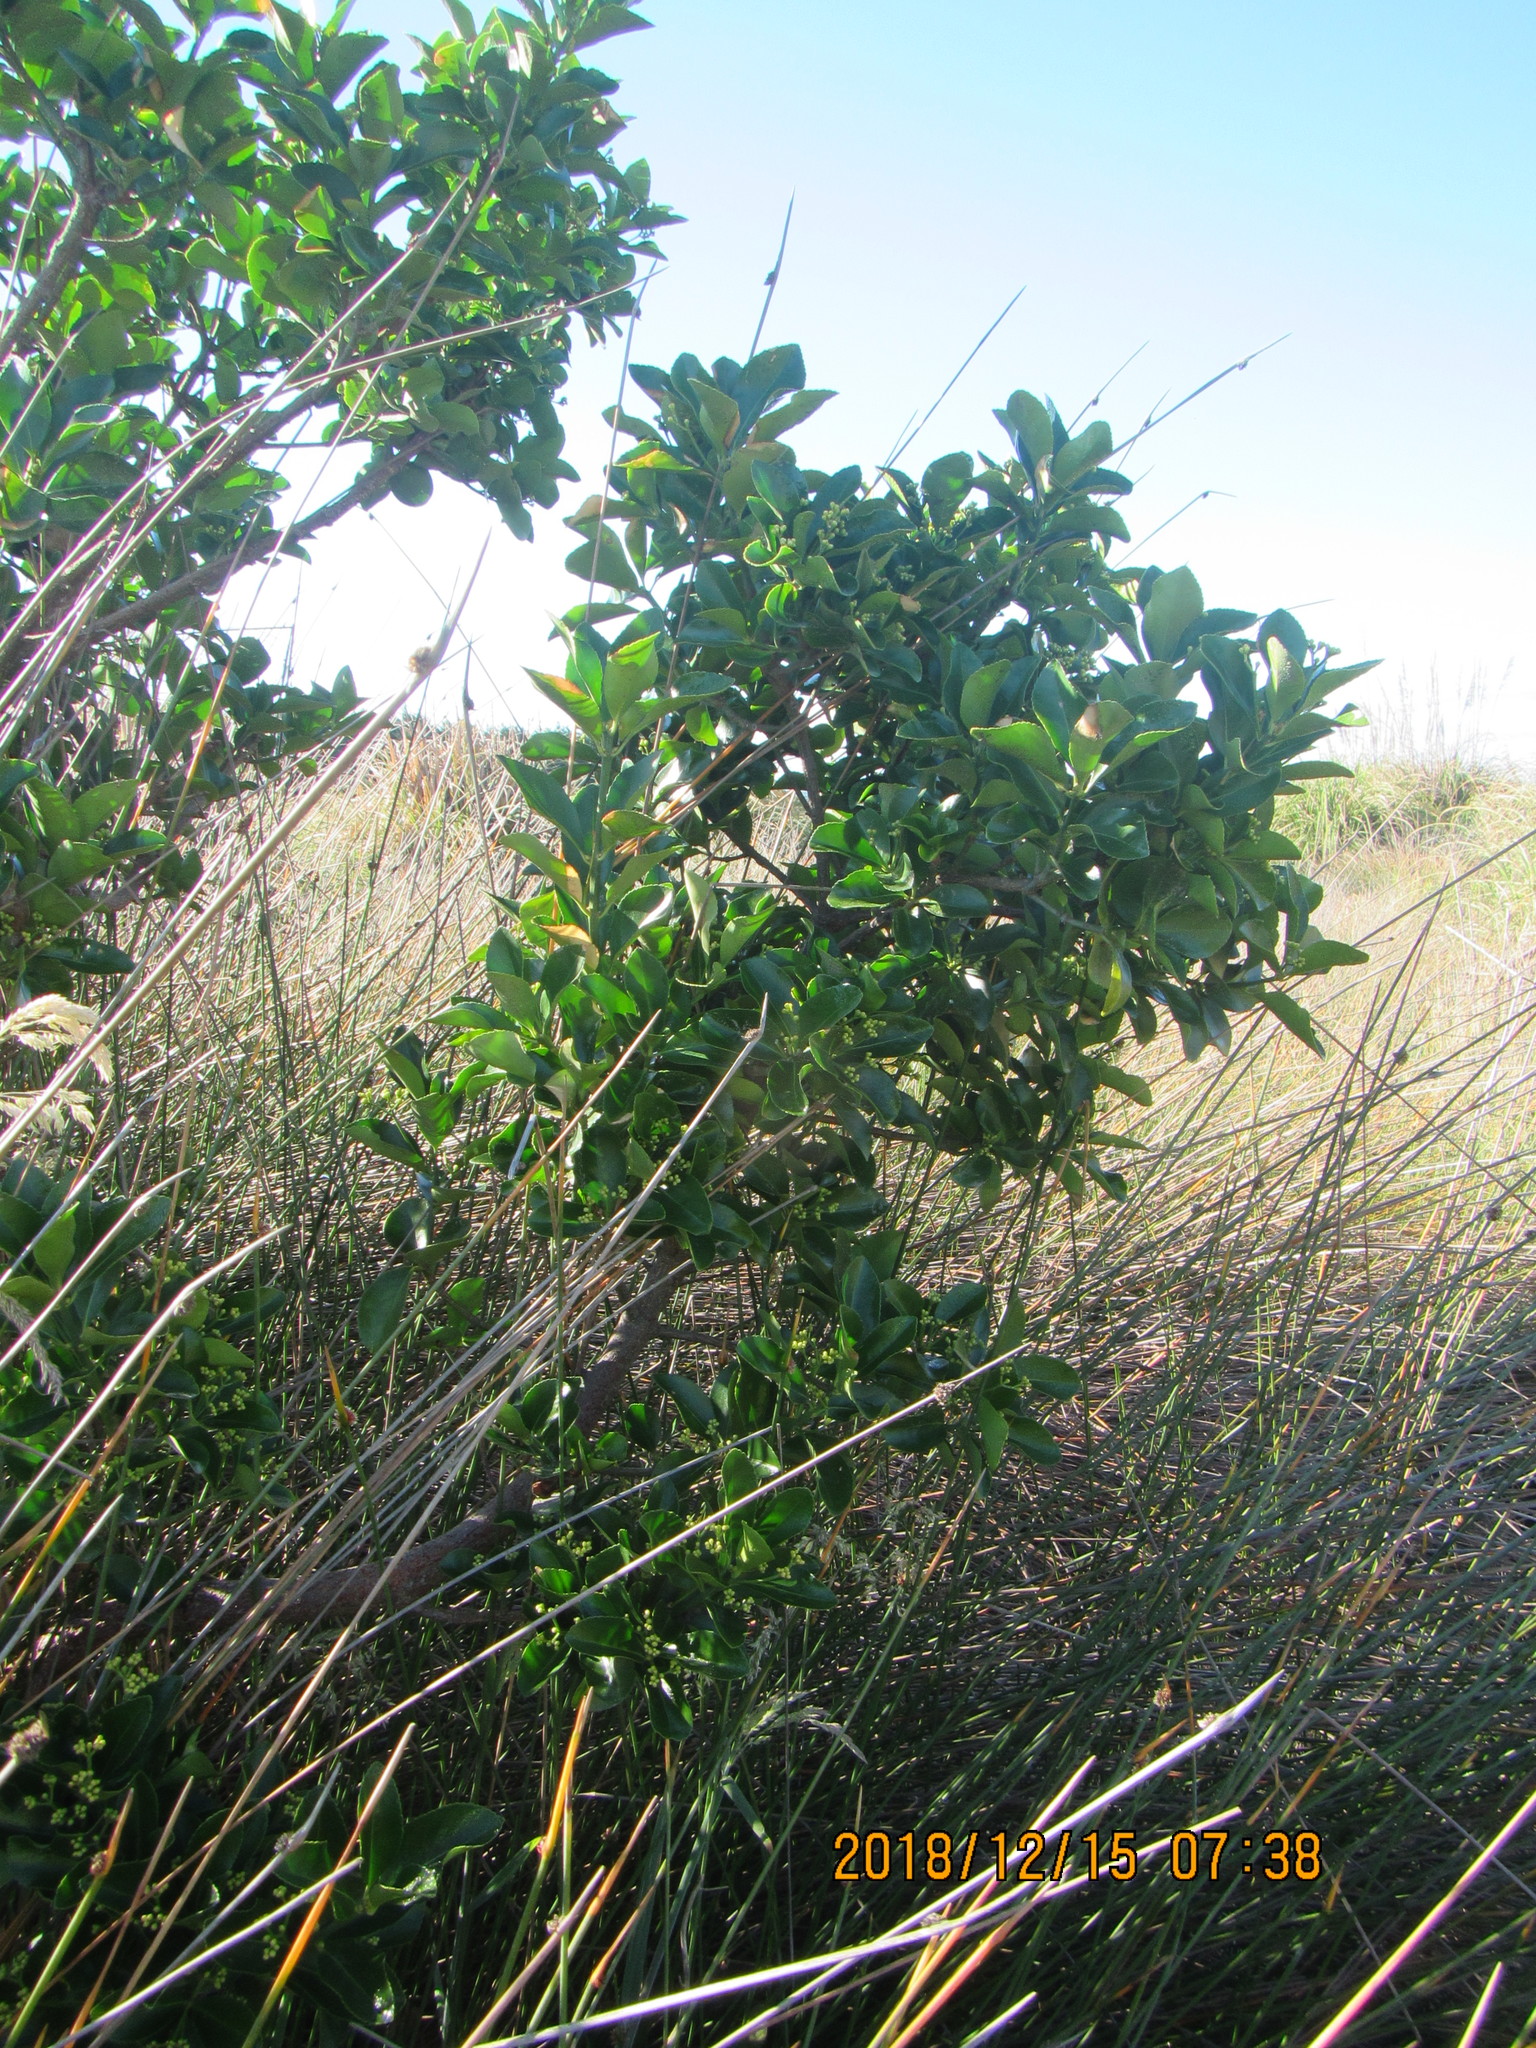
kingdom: Plantae
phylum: Tracheophyta
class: Magnoliopsida
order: Celastrales
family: Celastraceae
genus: Euonymus
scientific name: Euonymus japonicus
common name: Japanese spindletree
